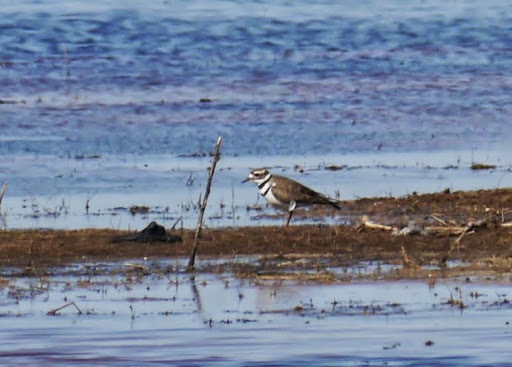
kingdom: Animalia
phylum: Chordata
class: Aves
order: Charadriiformes
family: Charadriidae
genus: Charadrius
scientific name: Charadrius vociferus
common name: Killdeer
